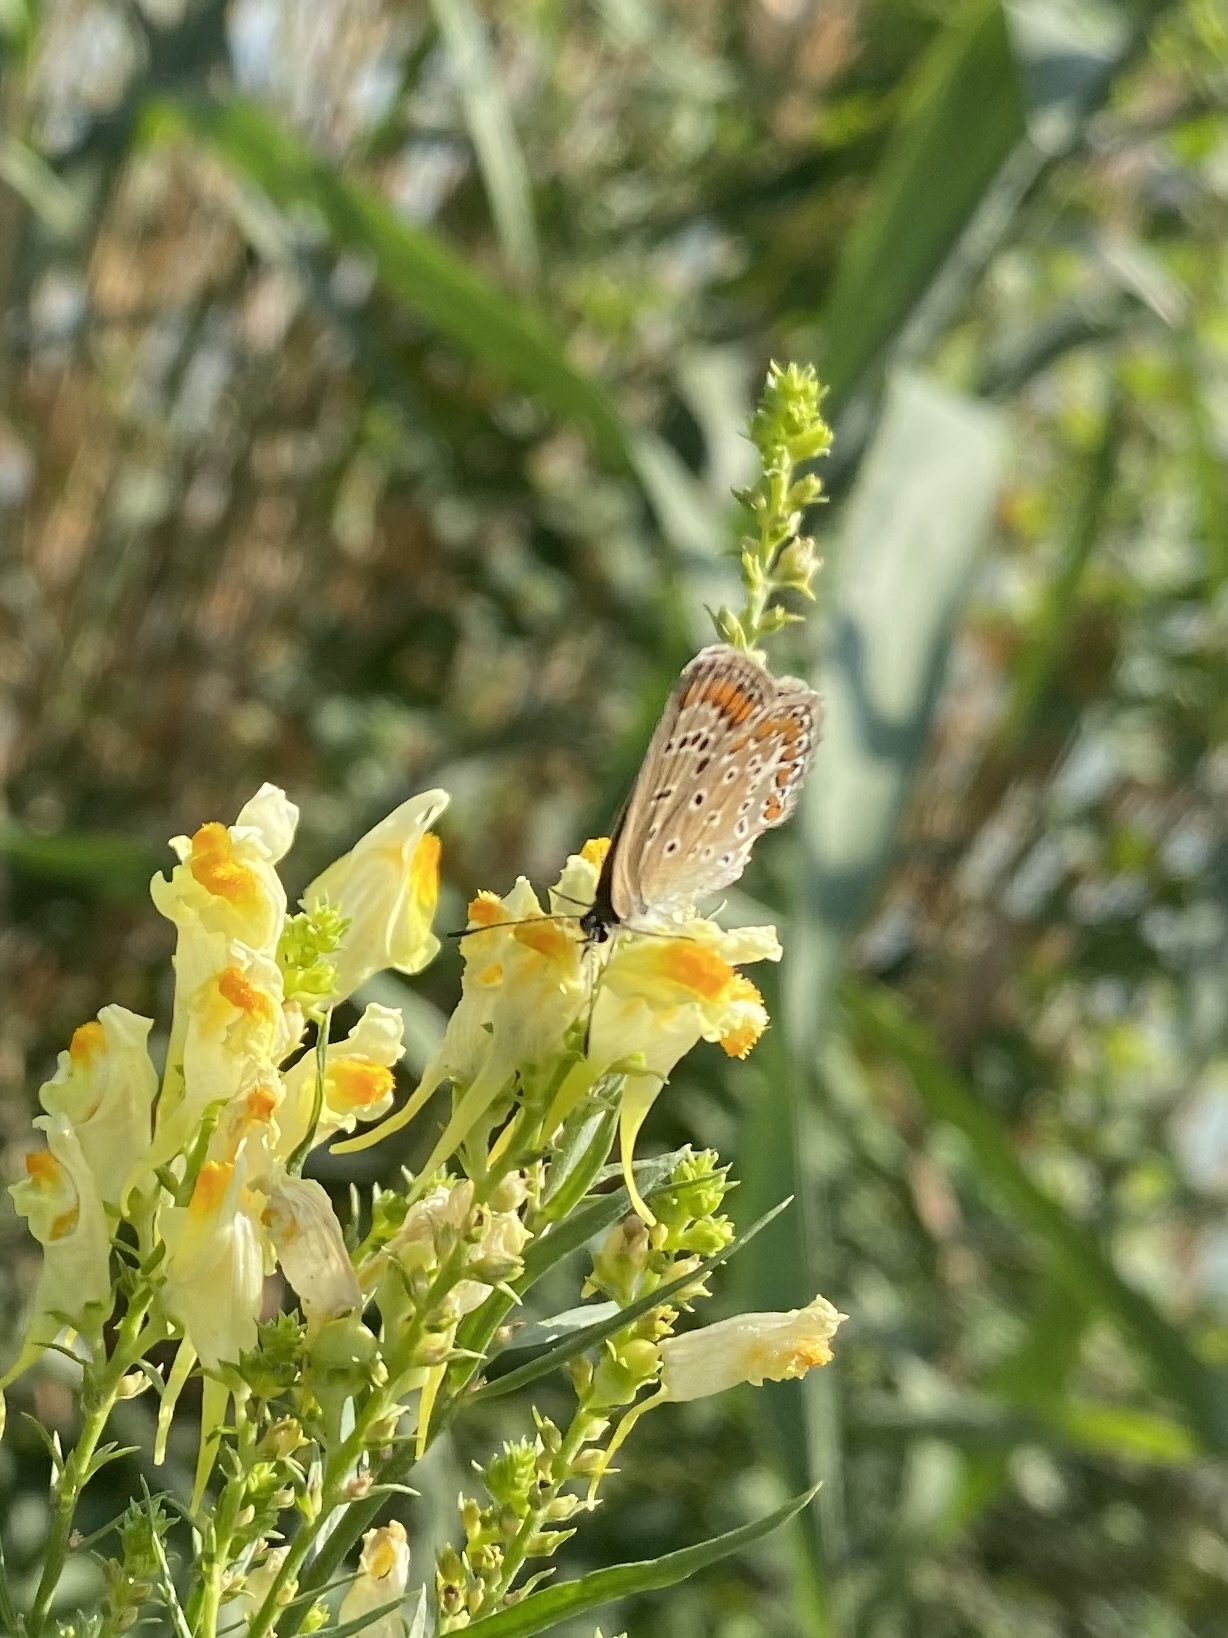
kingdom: Animalia
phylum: Arthropoda
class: Insecta
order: Lepidoptera
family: Lycaenidae
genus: Polyommatus
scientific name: Polyommatus icarus
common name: Common blue
